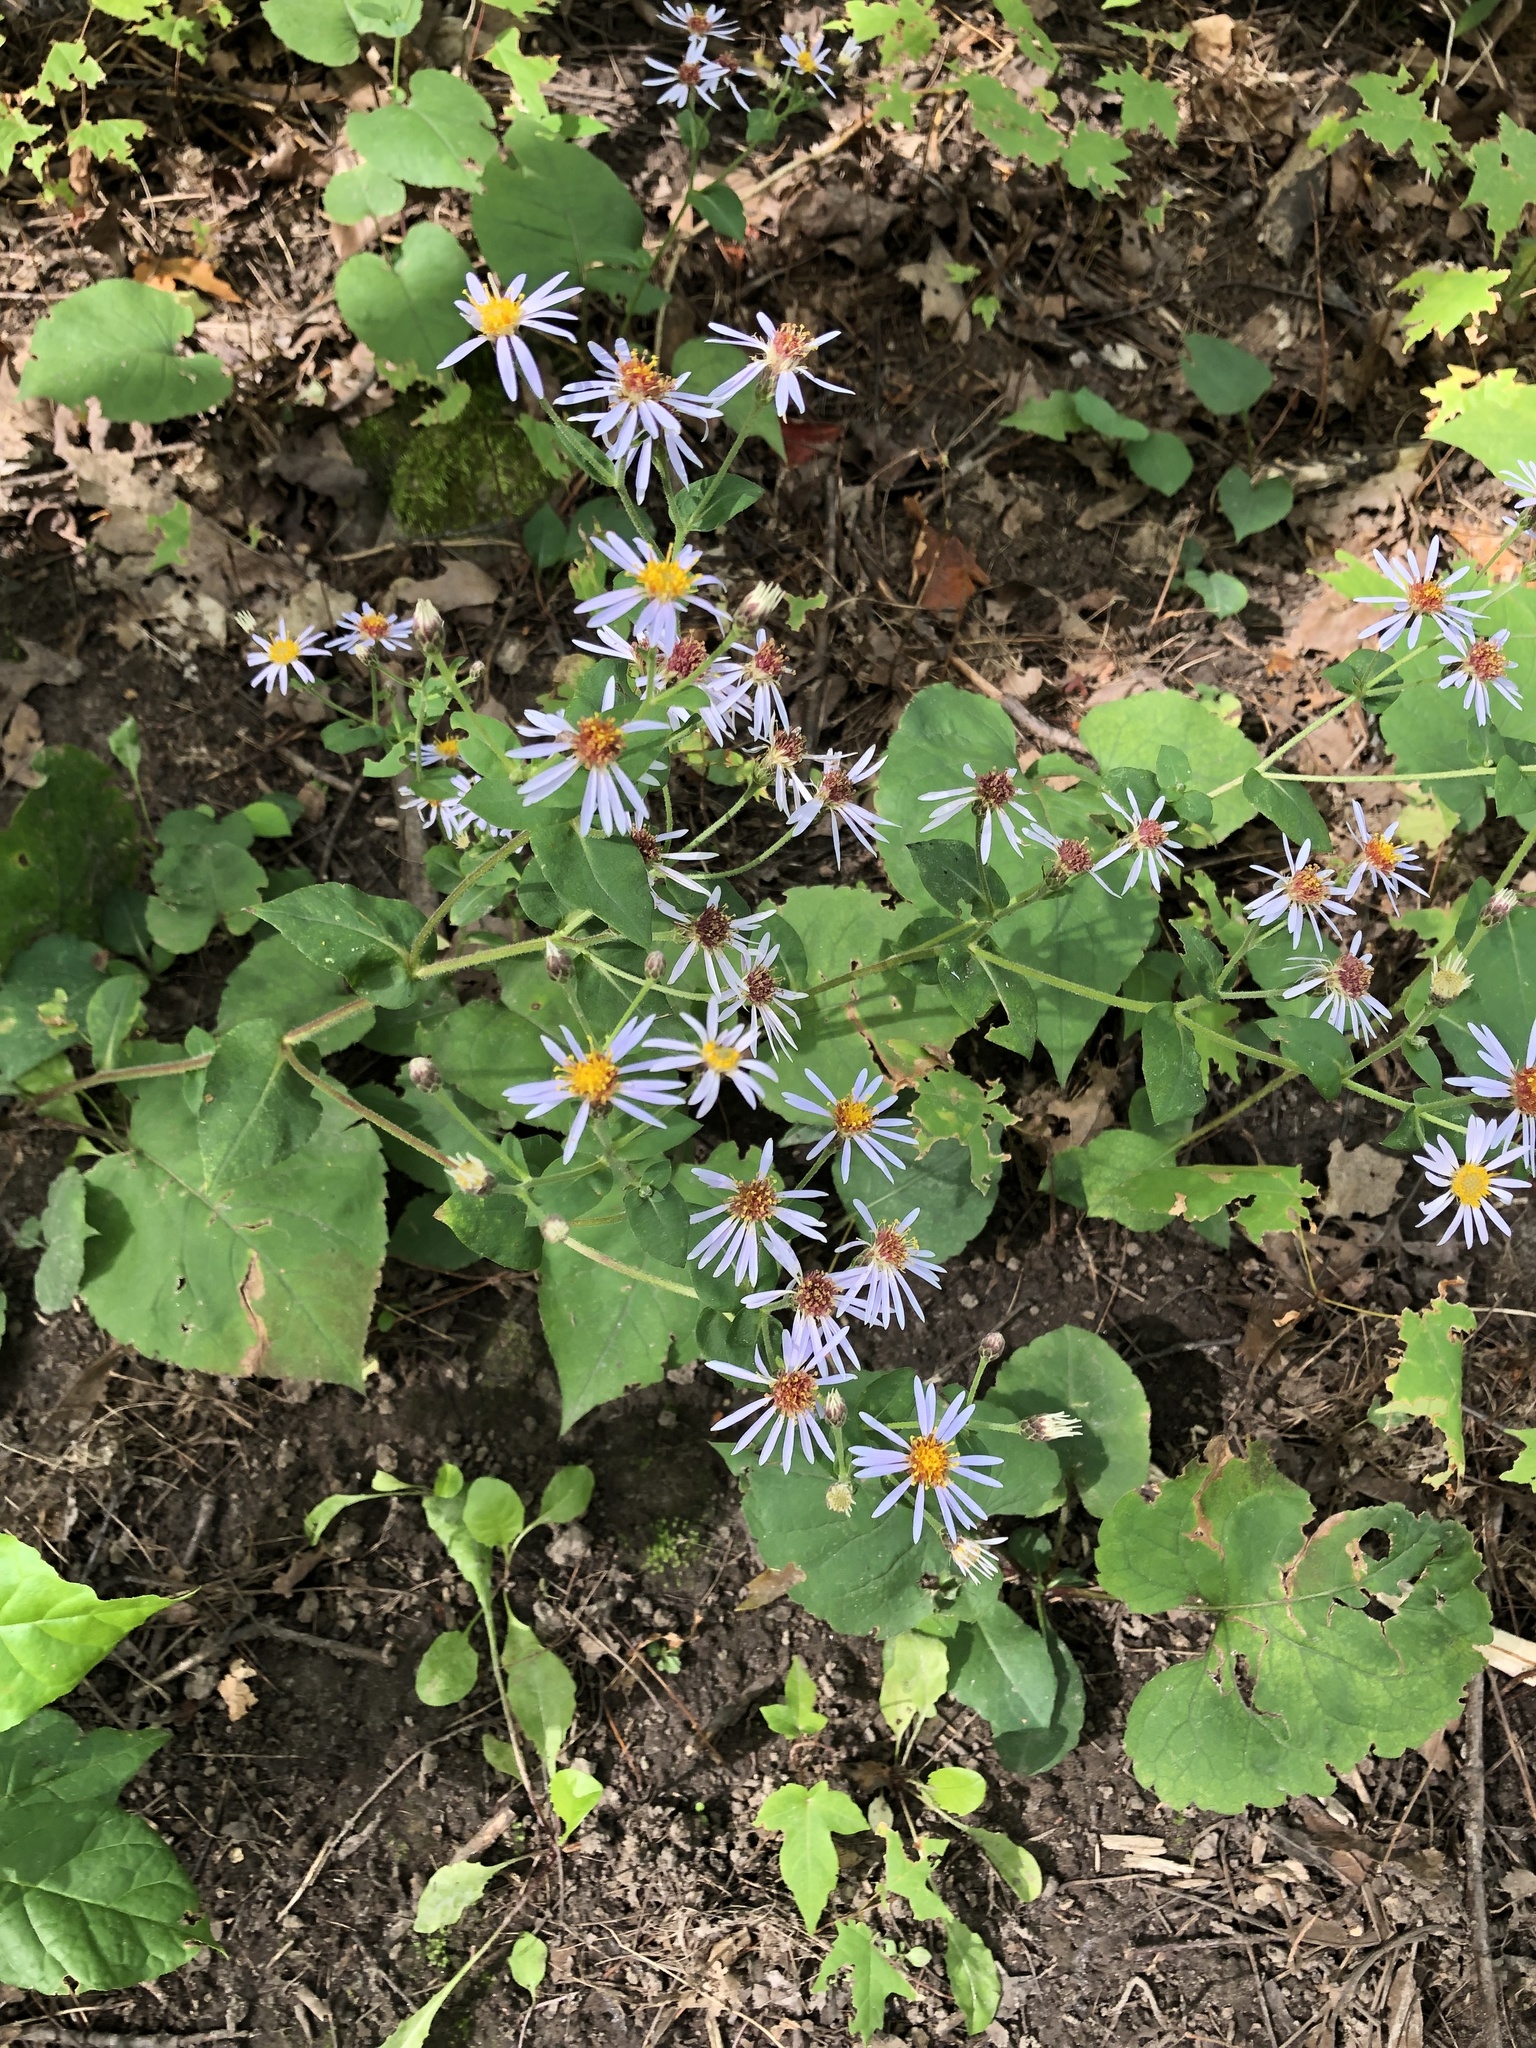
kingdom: Plantae
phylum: Tracheophyta
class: Magnoliopsida
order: Asterales
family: Asteraceae
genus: Eurybia
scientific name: Eurybia macrophylla
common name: Big-leaved aster
